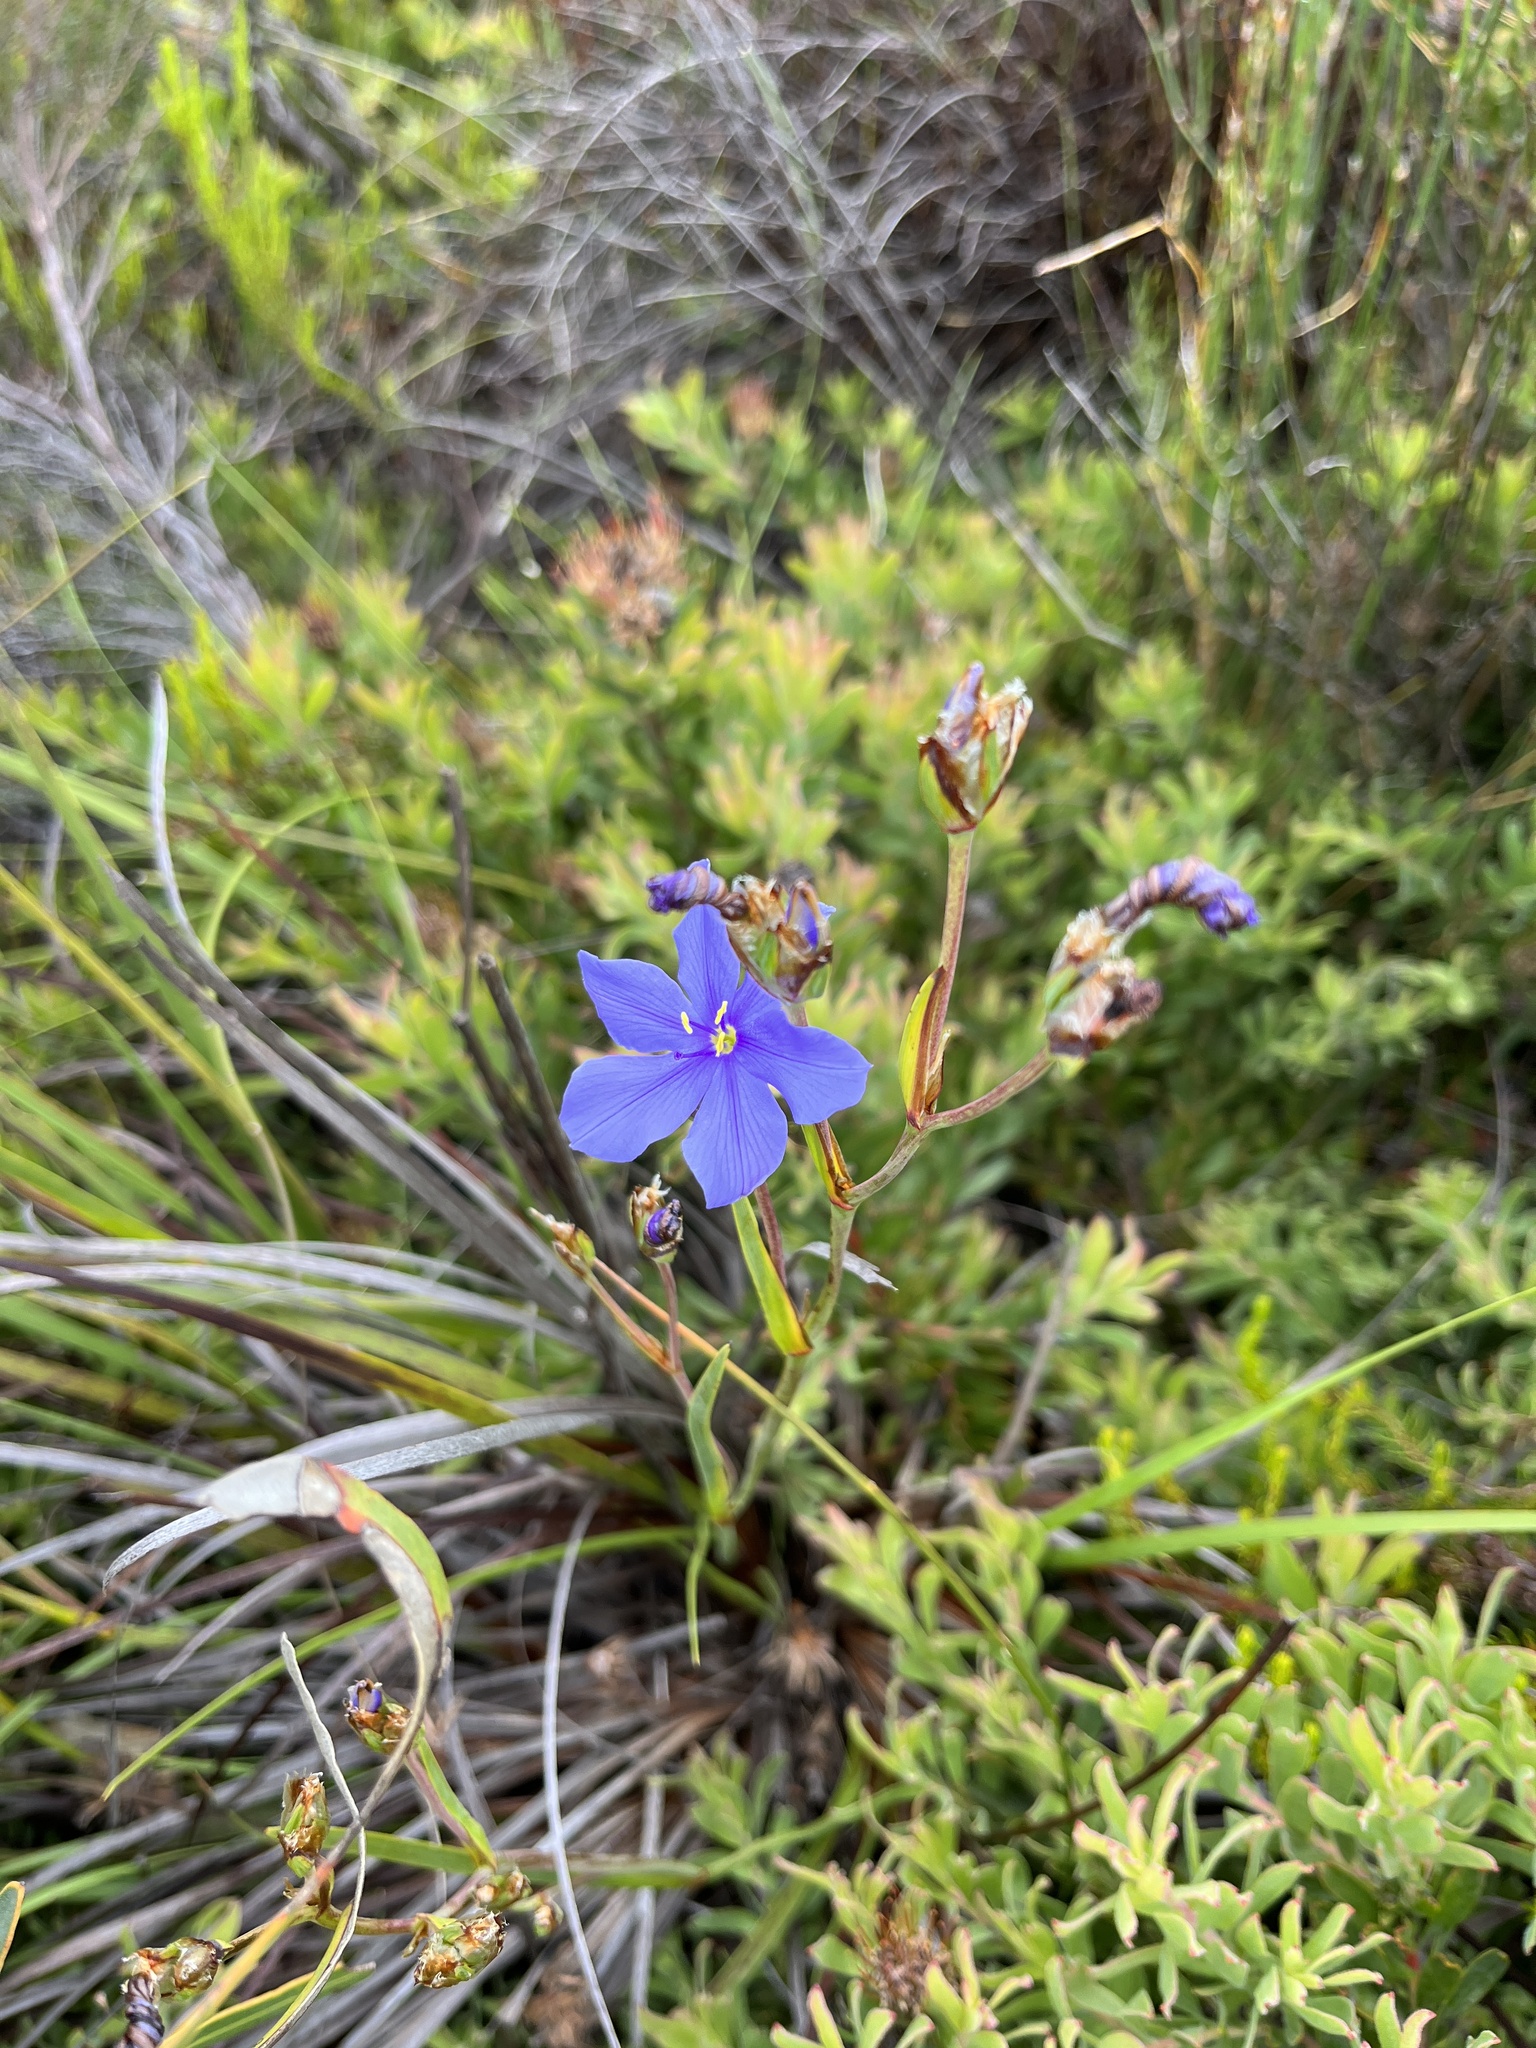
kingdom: Plantae
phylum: Tracheophyta
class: Liliopsida
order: Asparagales
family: Iridaceae
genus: Aristea
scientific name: Aristea glauca
